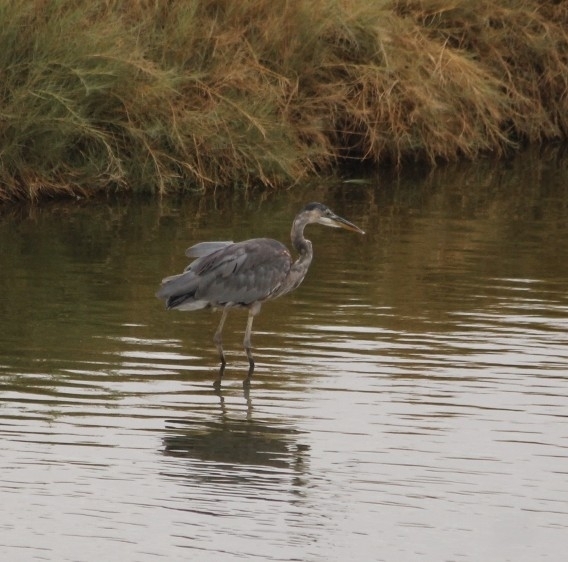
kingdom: Animalia
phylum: Chordata
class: Aves
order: Pelecaniformes
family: Ardeidae
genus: Ardea
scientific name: Ardea herodias
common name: Great blue heron
